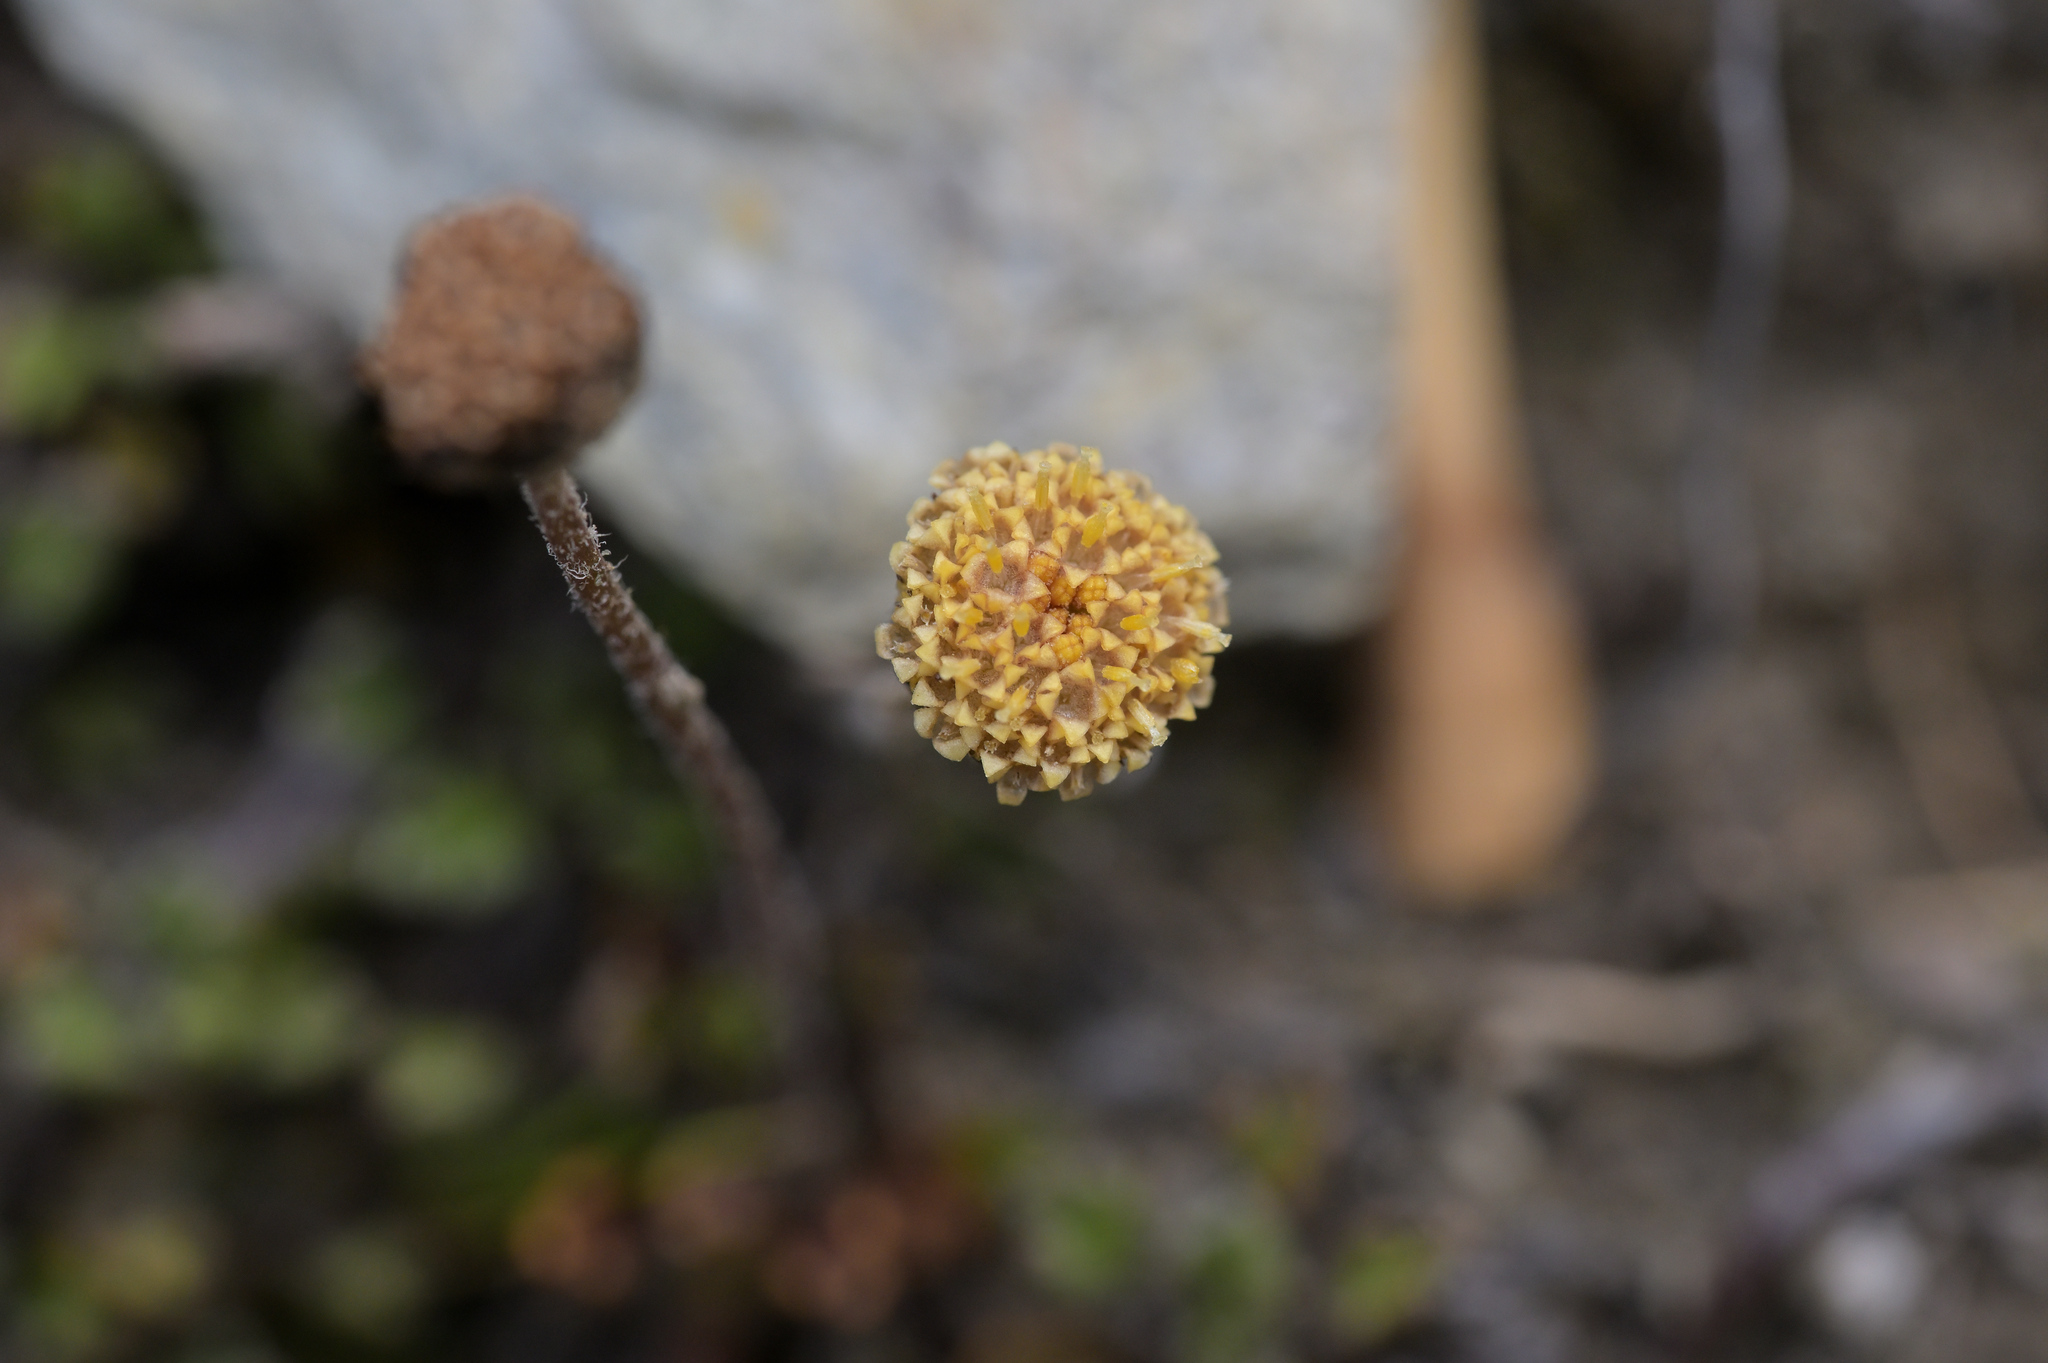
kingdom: Plantae
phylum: Tracheophyta
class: Magnoliopsida
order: Asterales
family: Asteraceae
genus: Leptinella
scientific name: Leptinella pectinata
